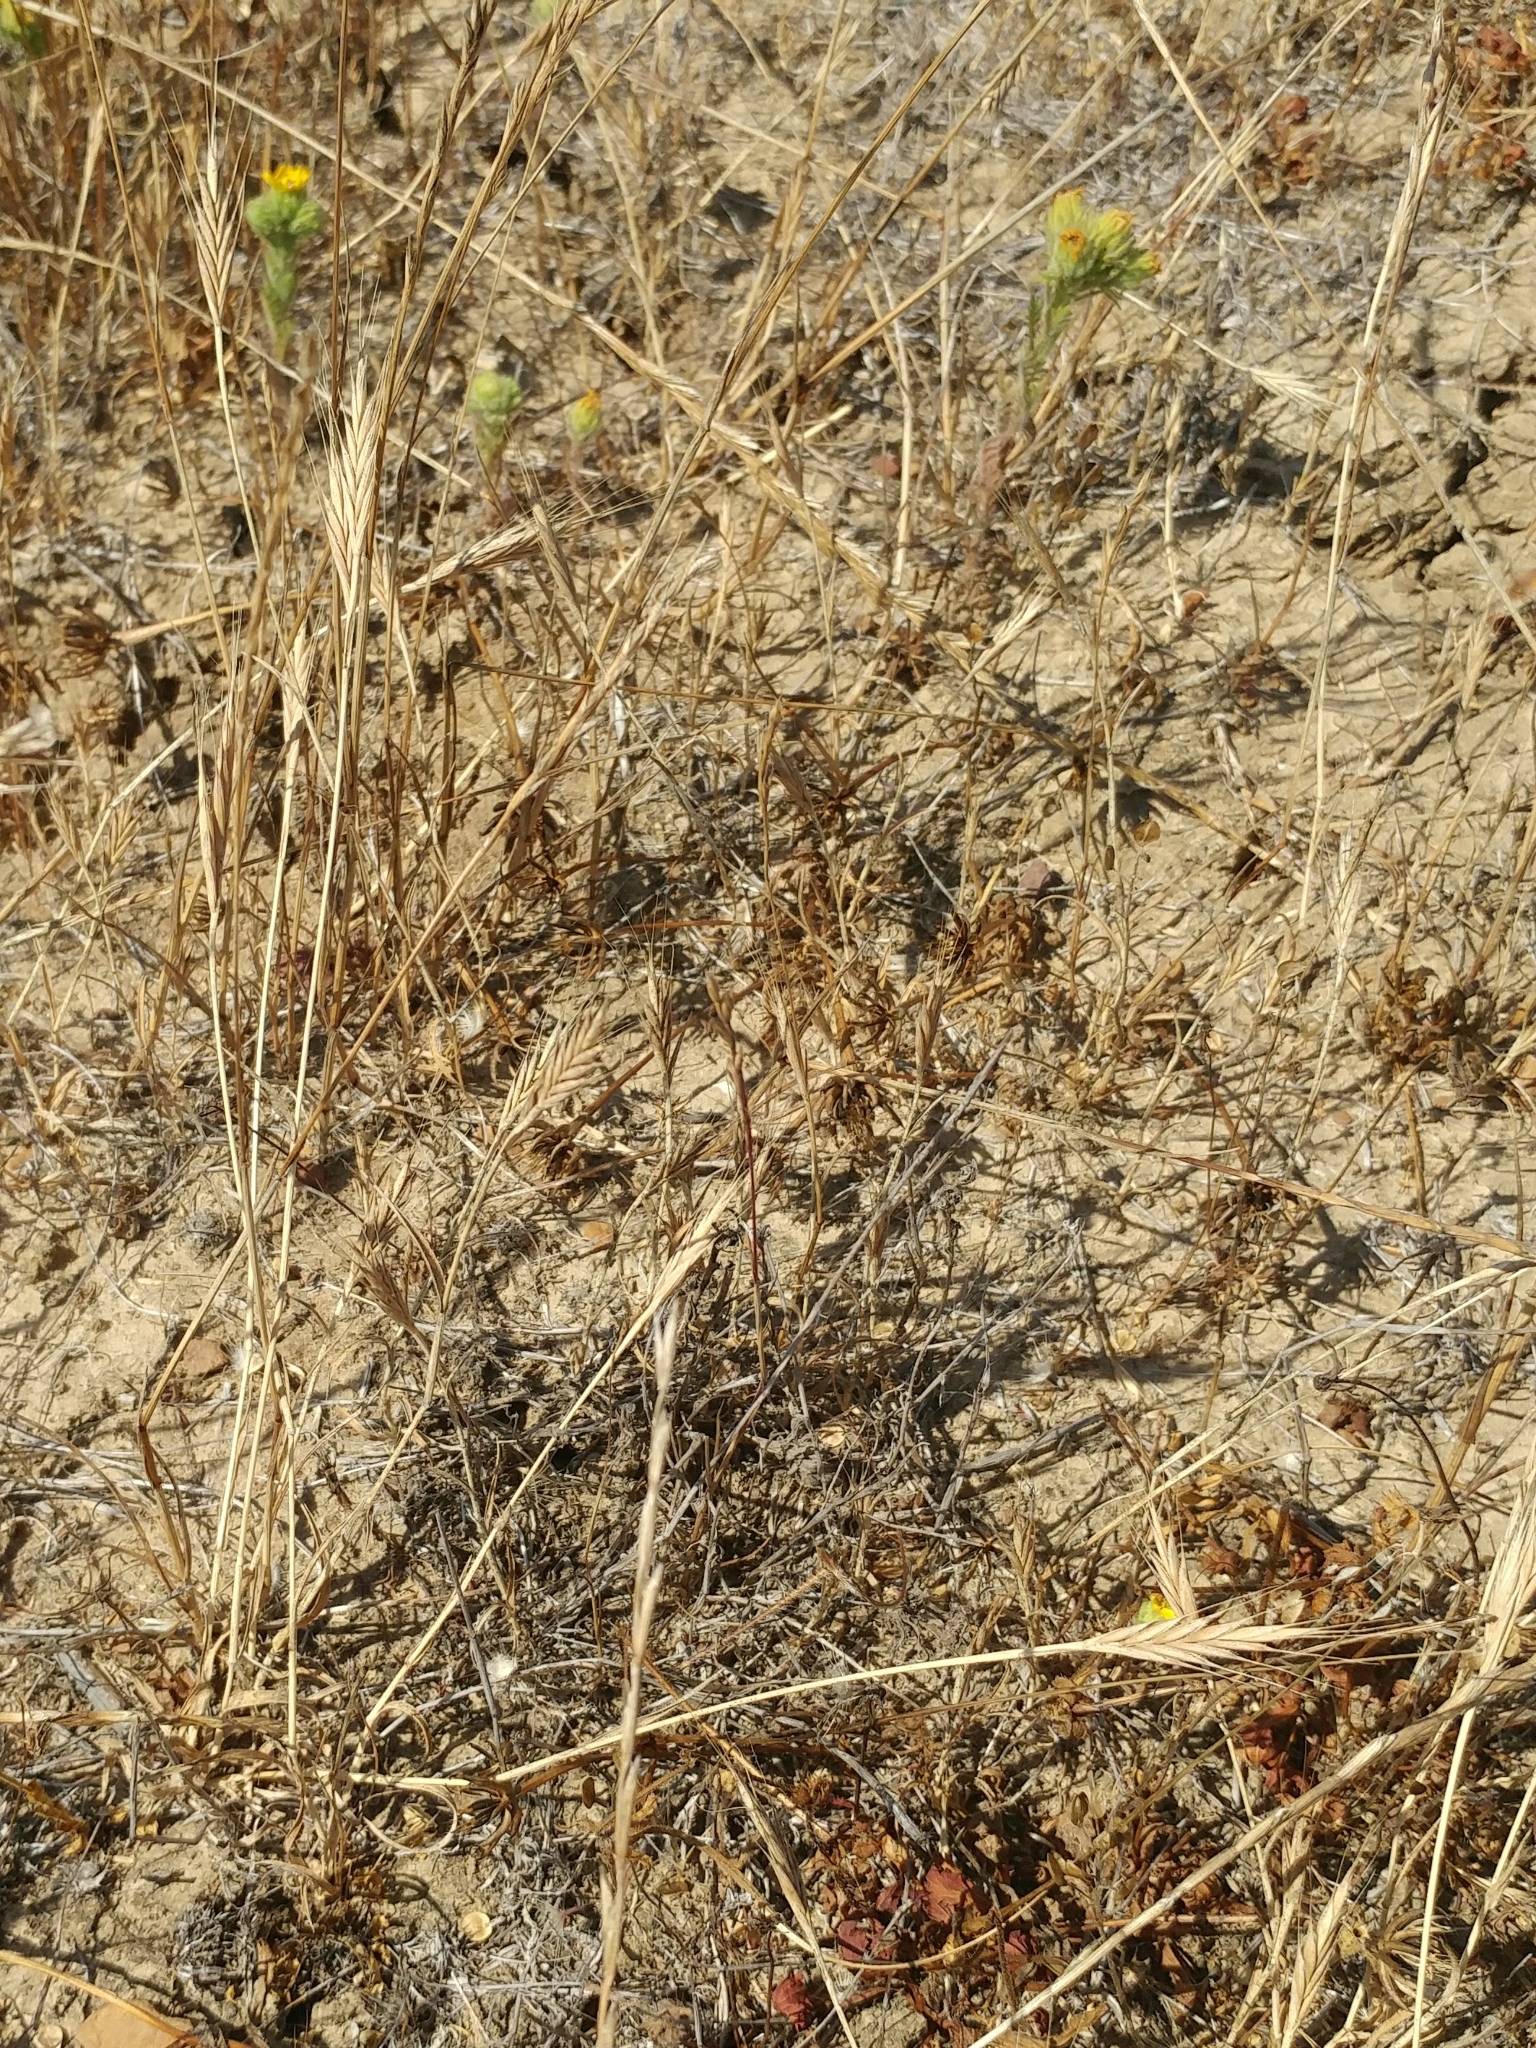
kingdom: Plantae
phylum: Tracheophyta
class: Liliopsida
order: Poales
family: Poaceae
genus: Brachypodium
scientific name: Brachypodium distachyon
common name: Stiff brome
